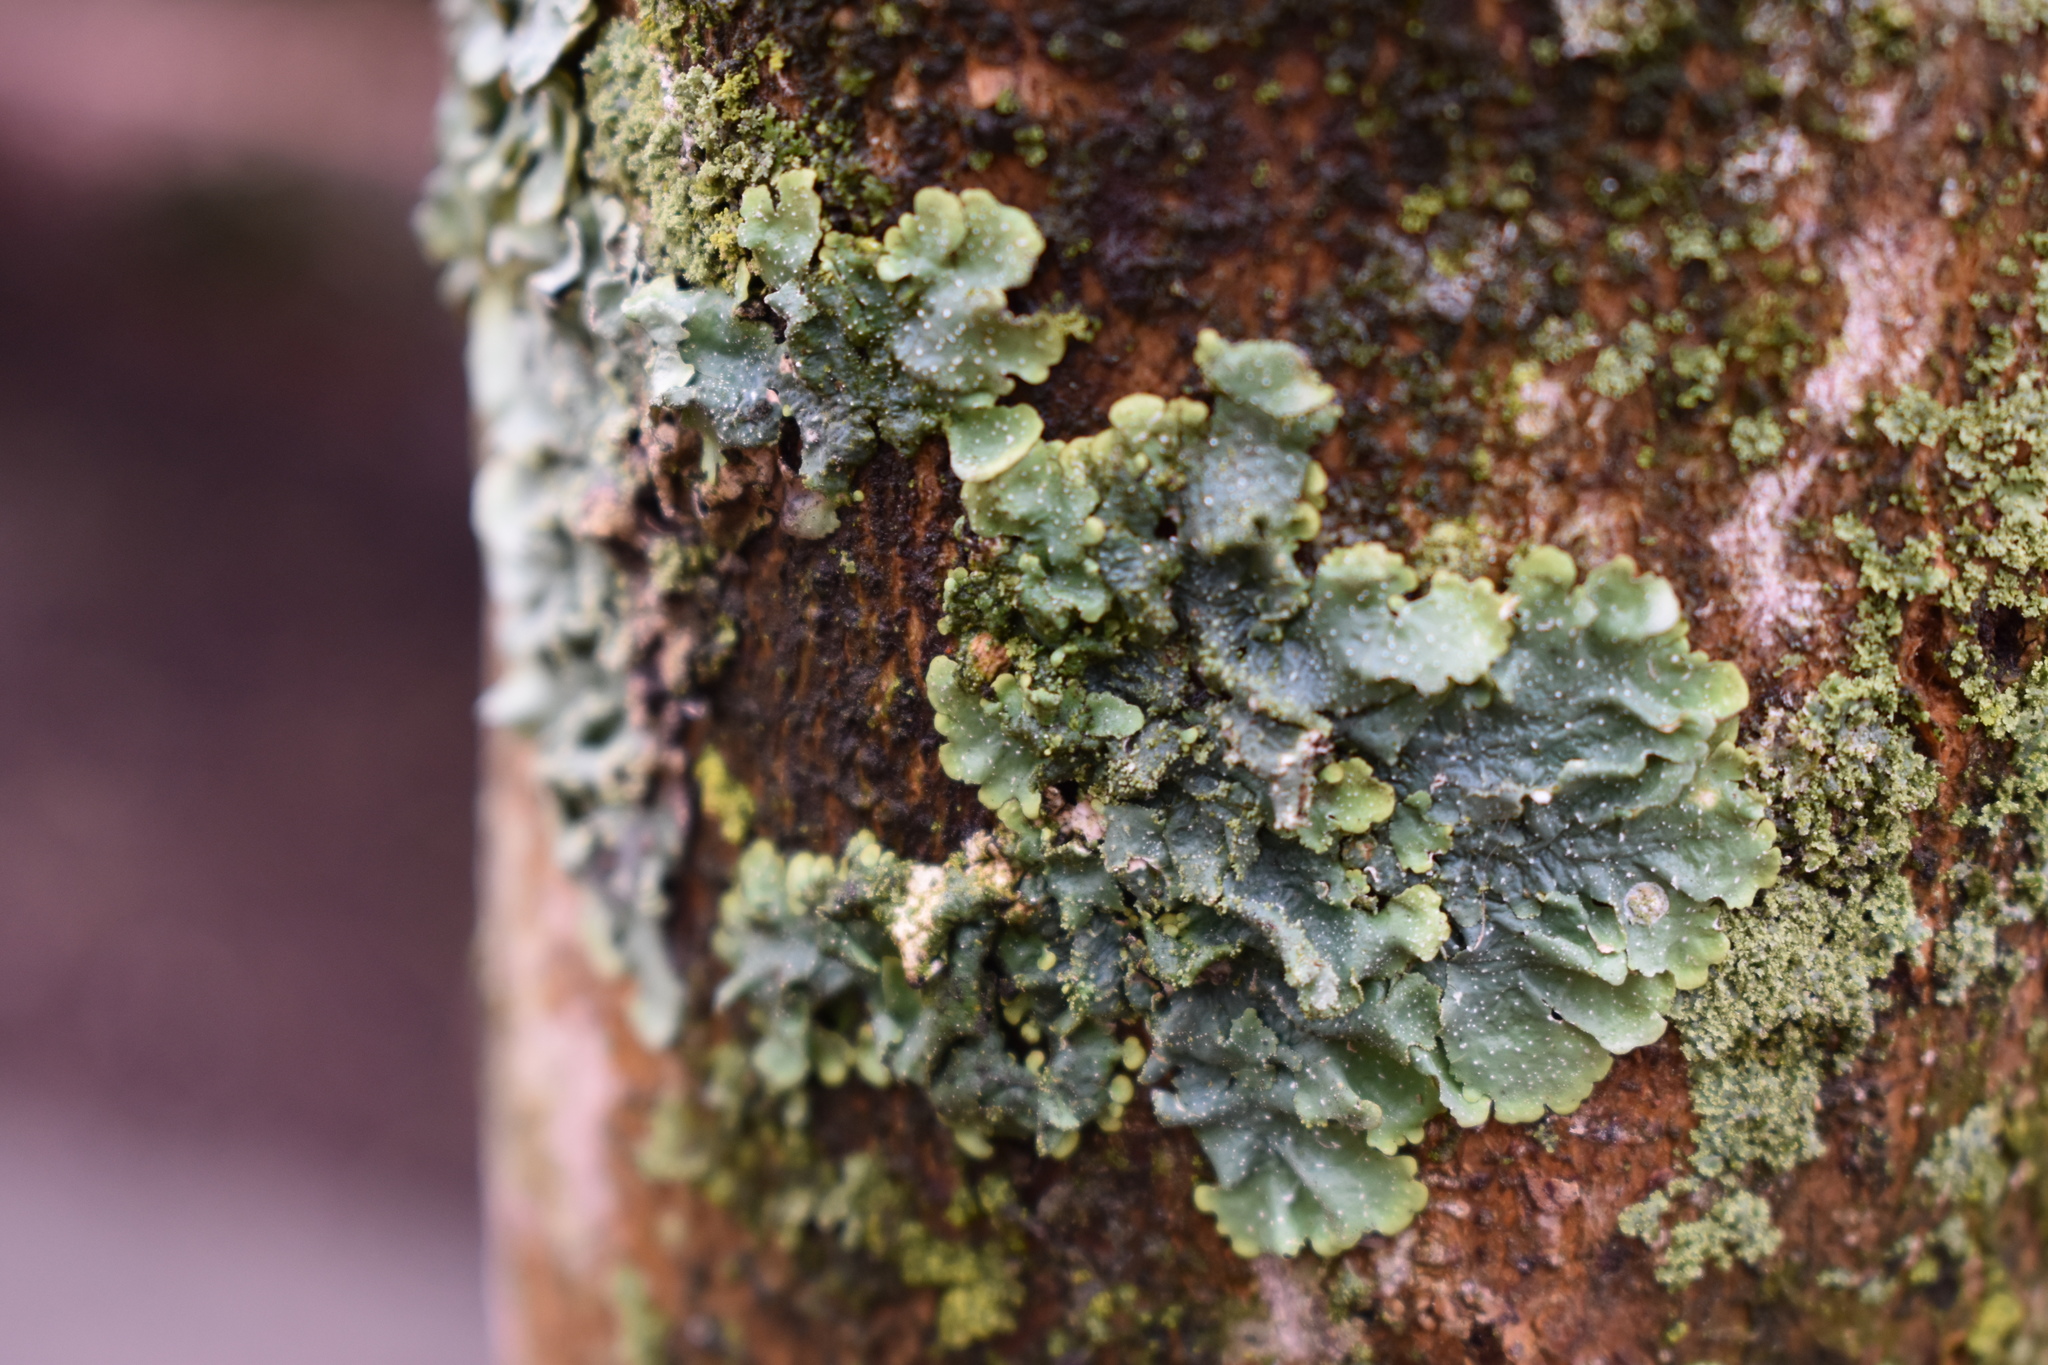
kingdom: Fungi
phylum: Ascomycota
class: Lecanoromycetes
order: Lecanorales
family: Parmeliaceae
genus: Punctelia
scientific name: Punctelia rudecta
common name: Rough speckled shield lichen
